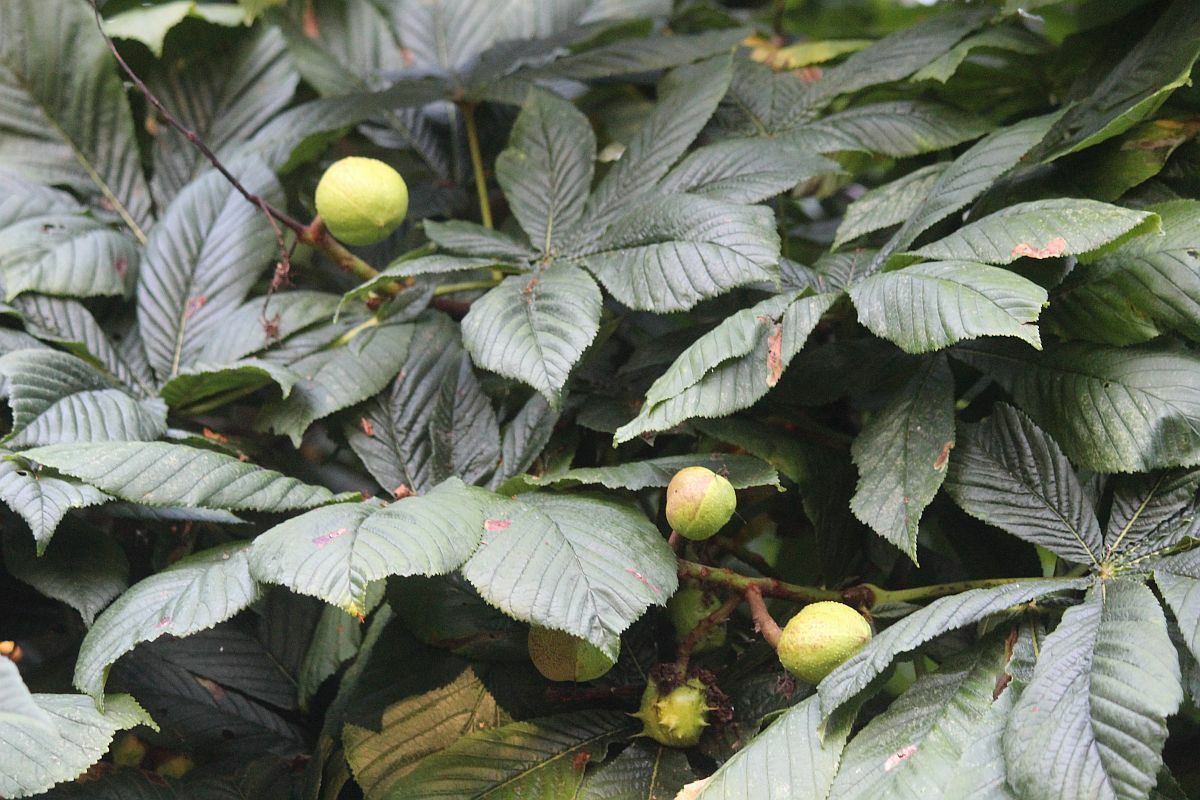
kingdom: Plantae
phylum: Tracheophyta
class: Magnoliopsida
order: Sapindales
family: Sapindaceae
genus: Aesculus
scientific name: Aesculus hippocastanum
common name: Horse-chestnut
